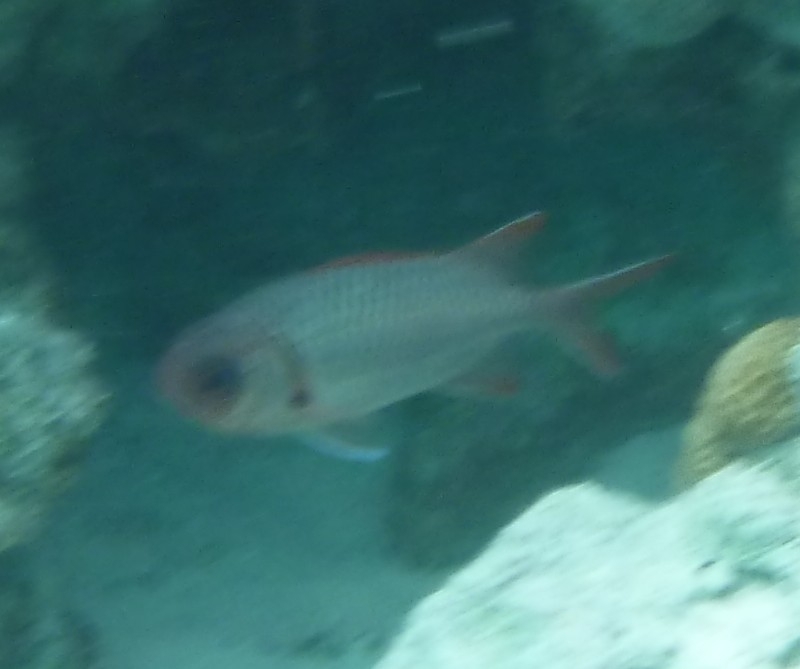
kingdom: Animalia
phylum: Chordata
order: Beryciformes
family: Holocentridae
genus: Myripristis
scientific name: Myripristis violacea
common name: Lattice soldierfish
